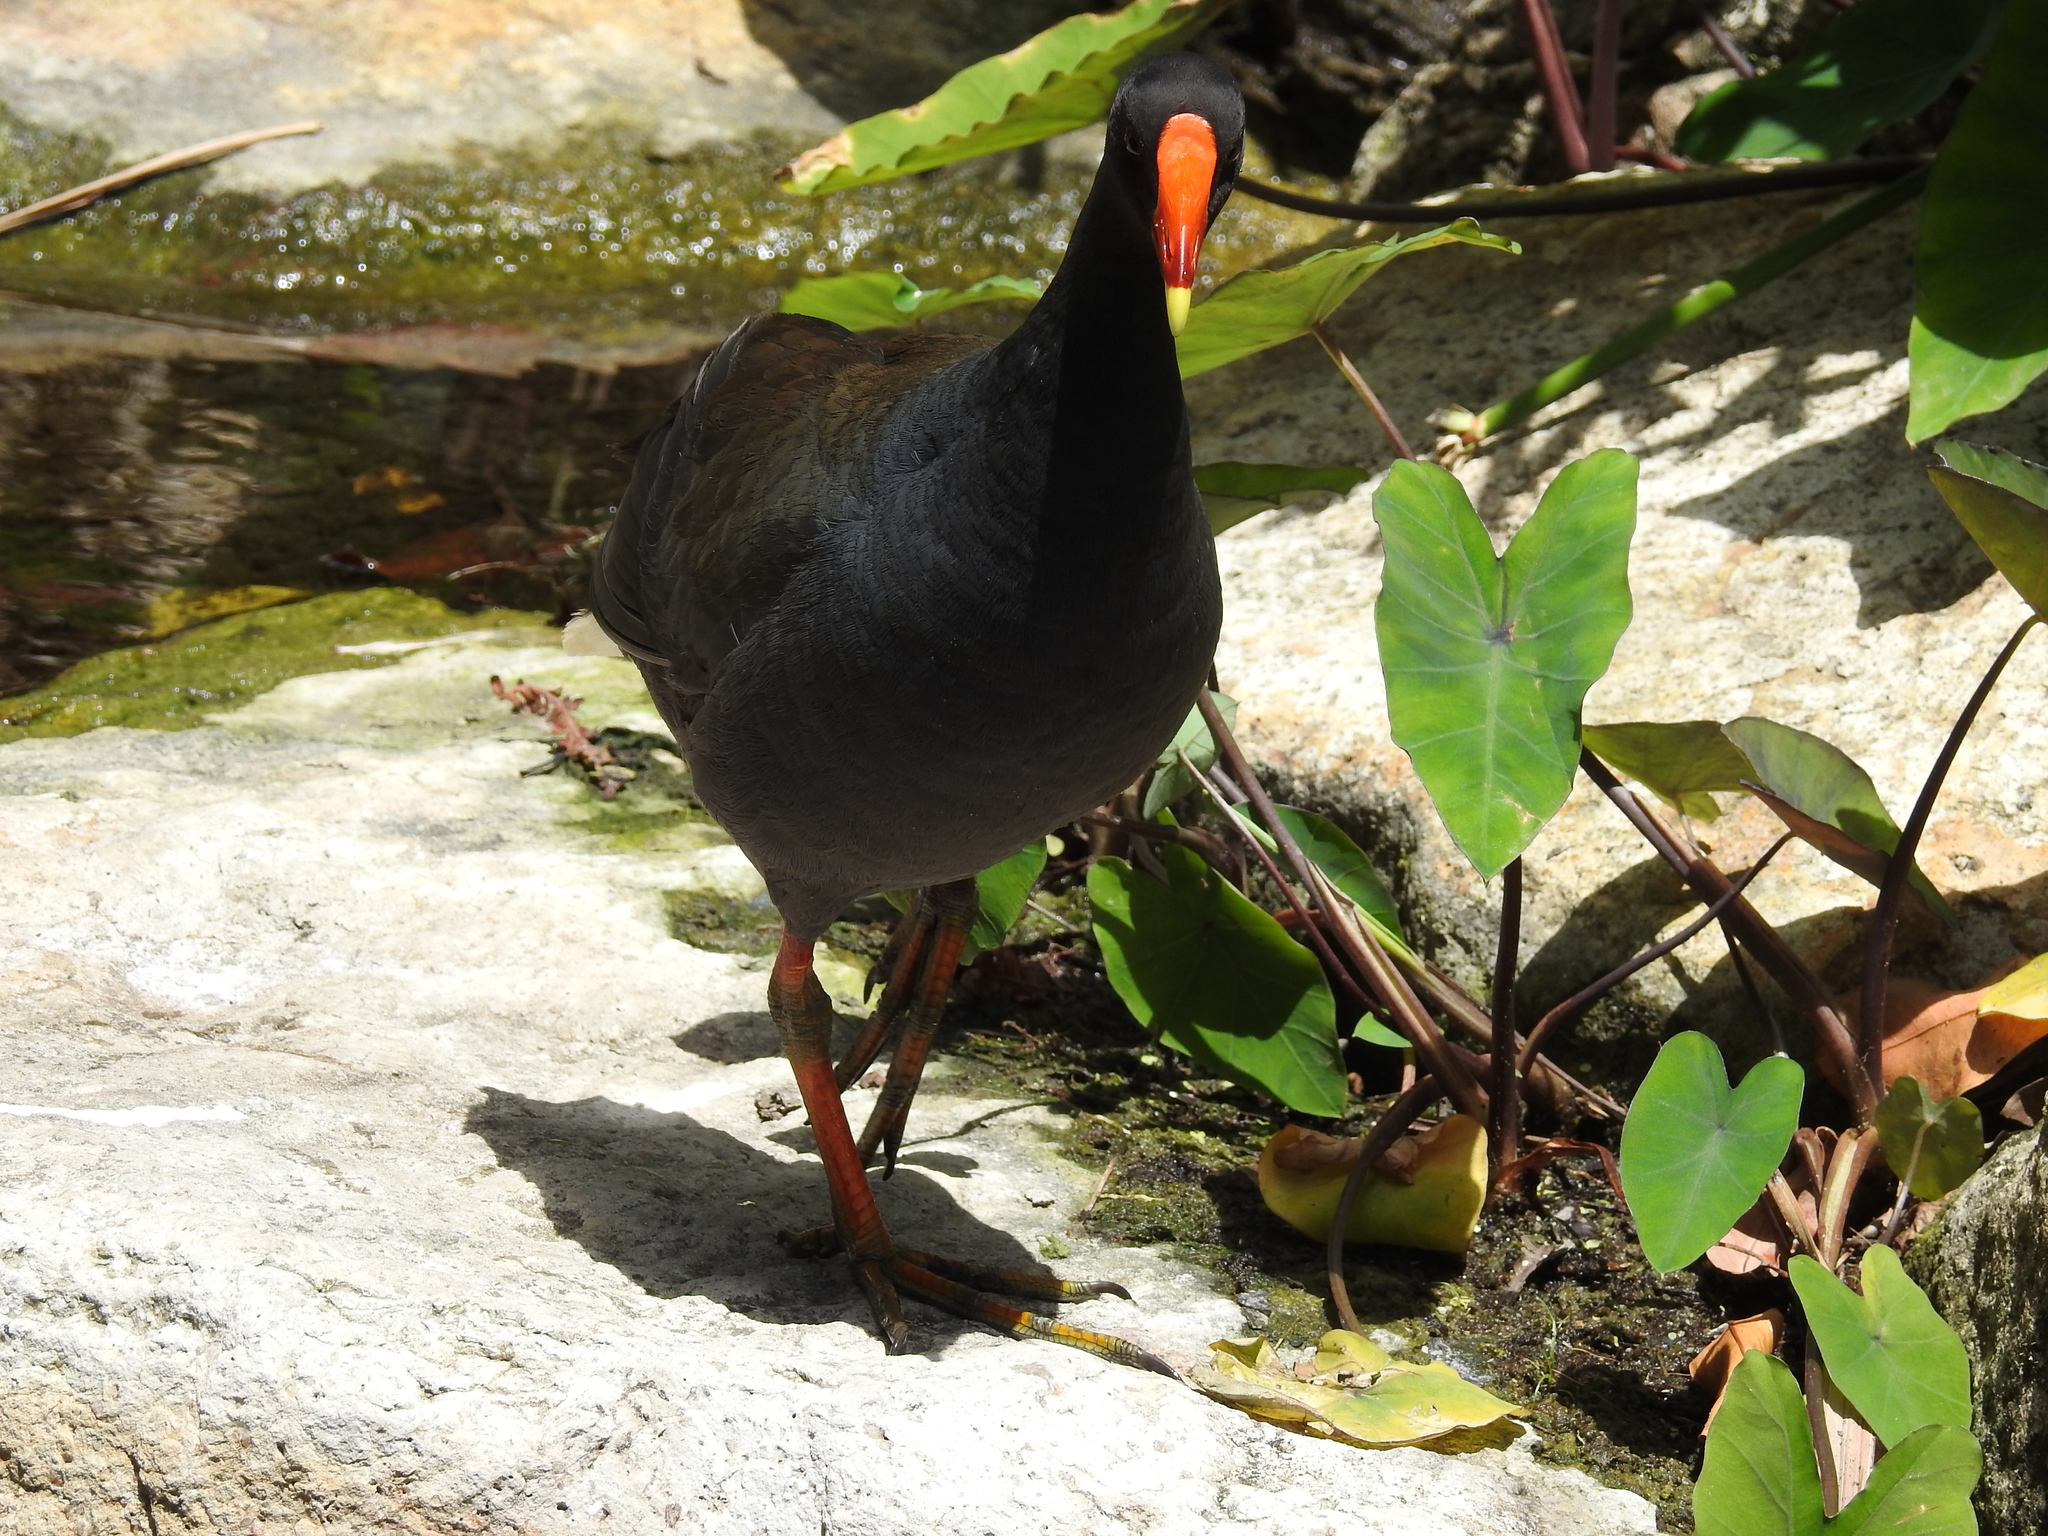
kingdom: Animalia
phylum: Chordata
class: Aves
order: Gruiformes
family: Rallidae
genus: Gallinula
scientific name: Gallinula tenebrosa
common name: Dusky moorhen
